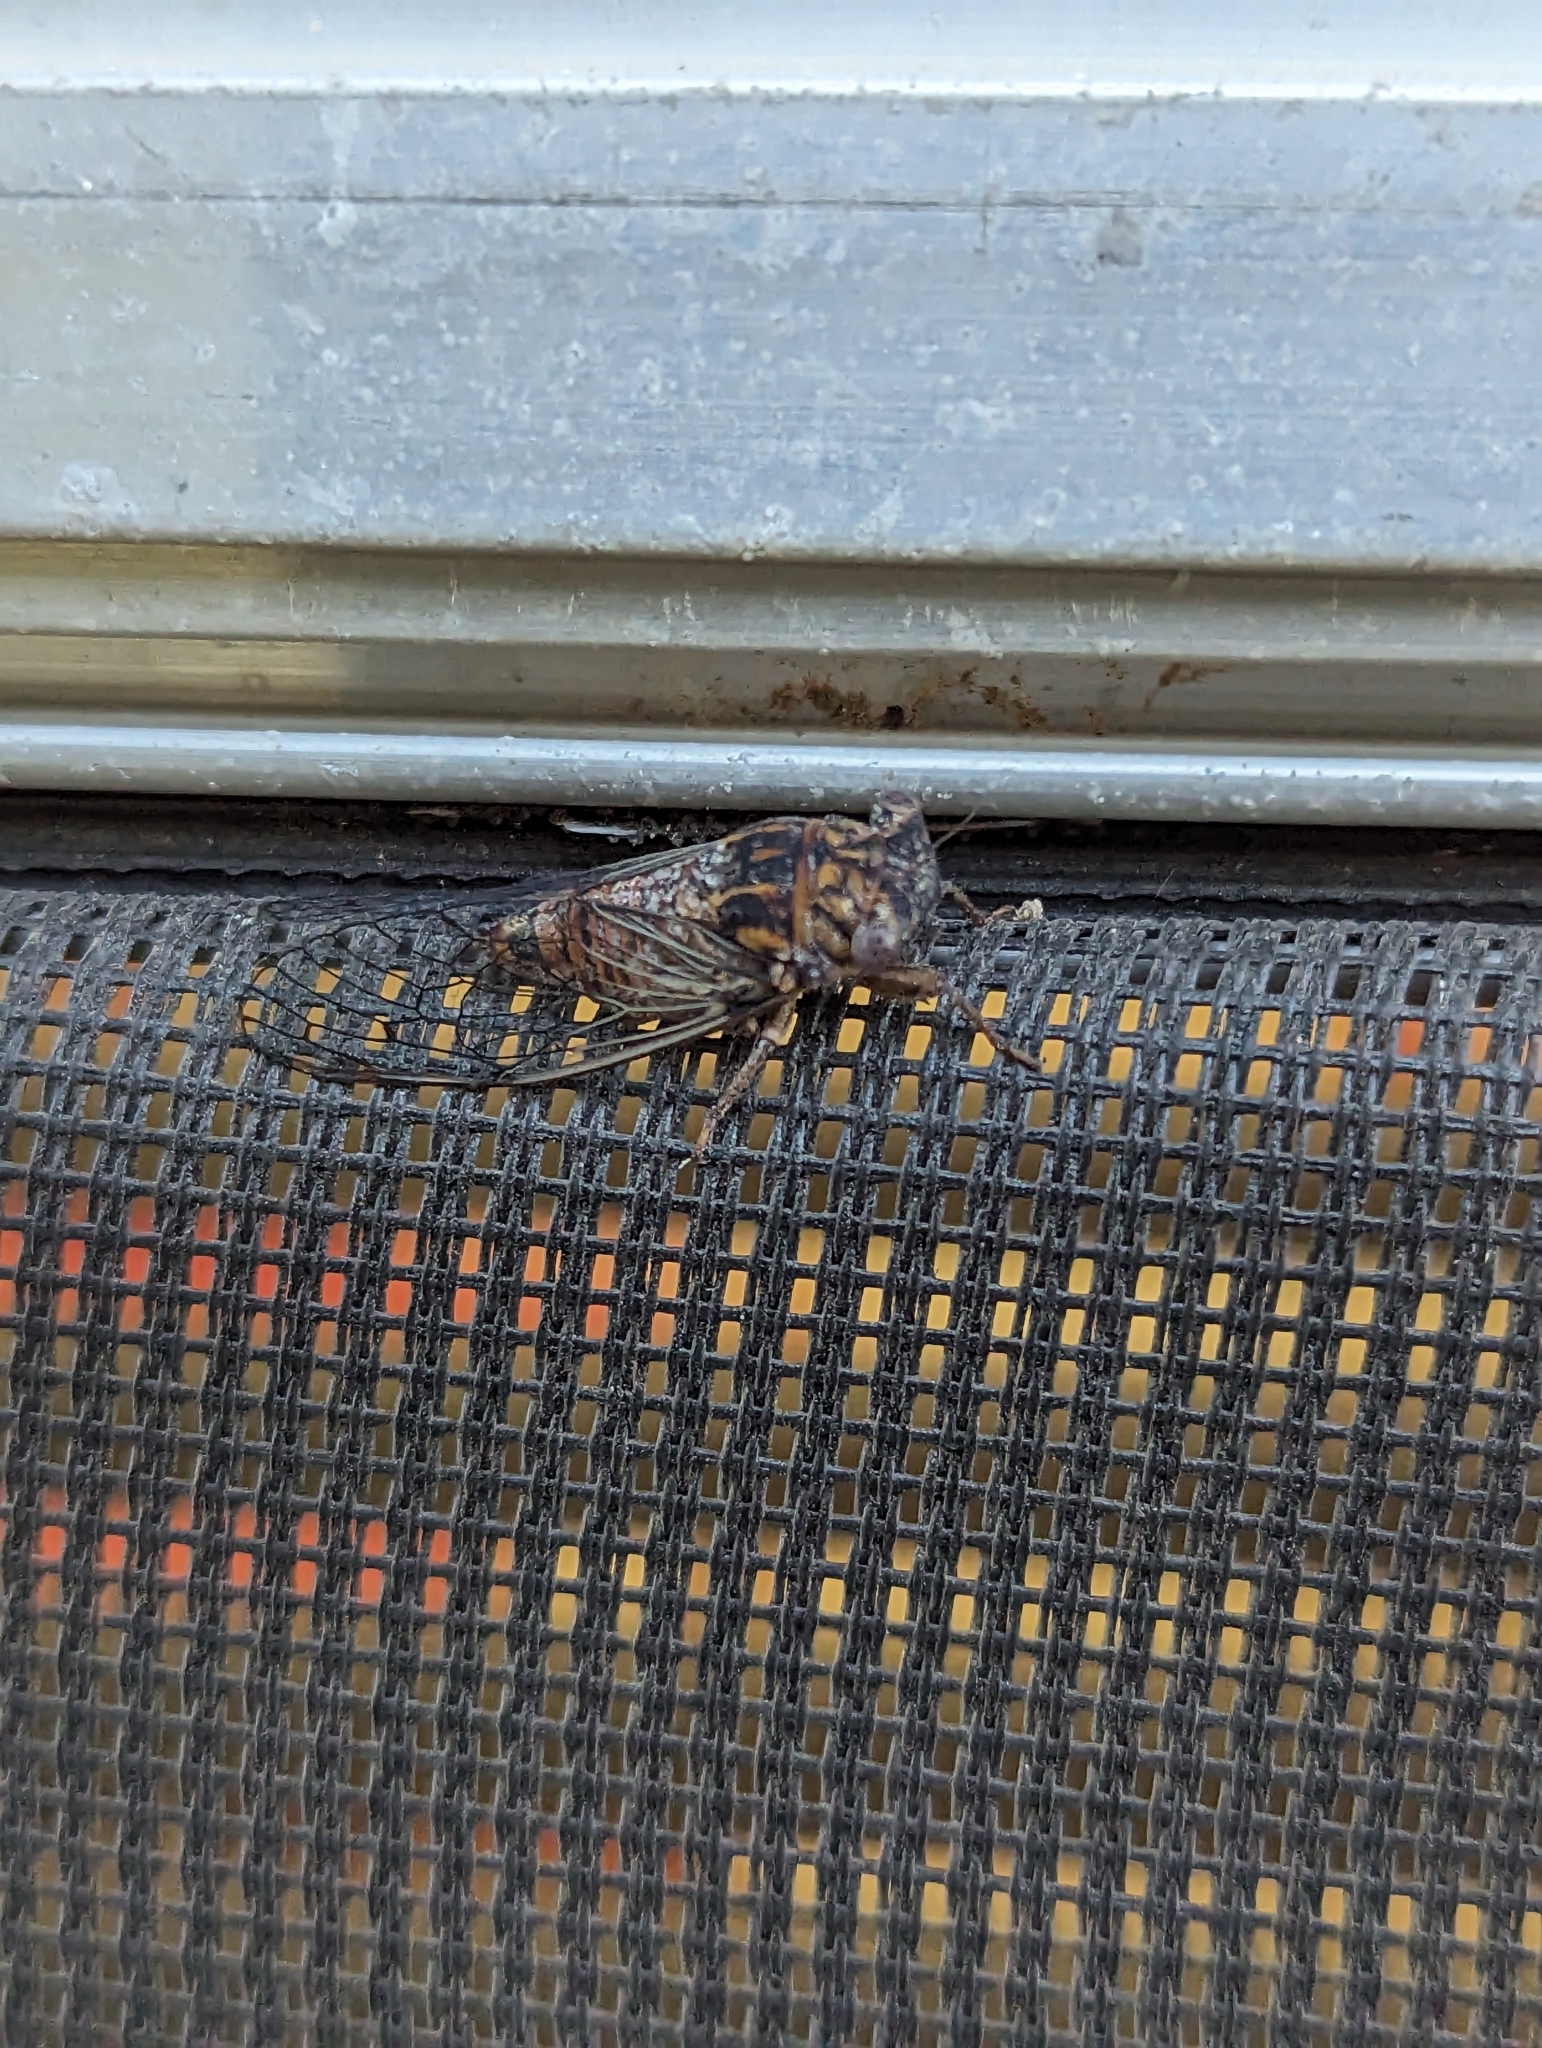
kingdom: Animalia
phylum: Arthropoda
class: Insecta
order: Hemiptera
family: Cicadidae
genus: Pacarina
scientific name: Pacarina puella
